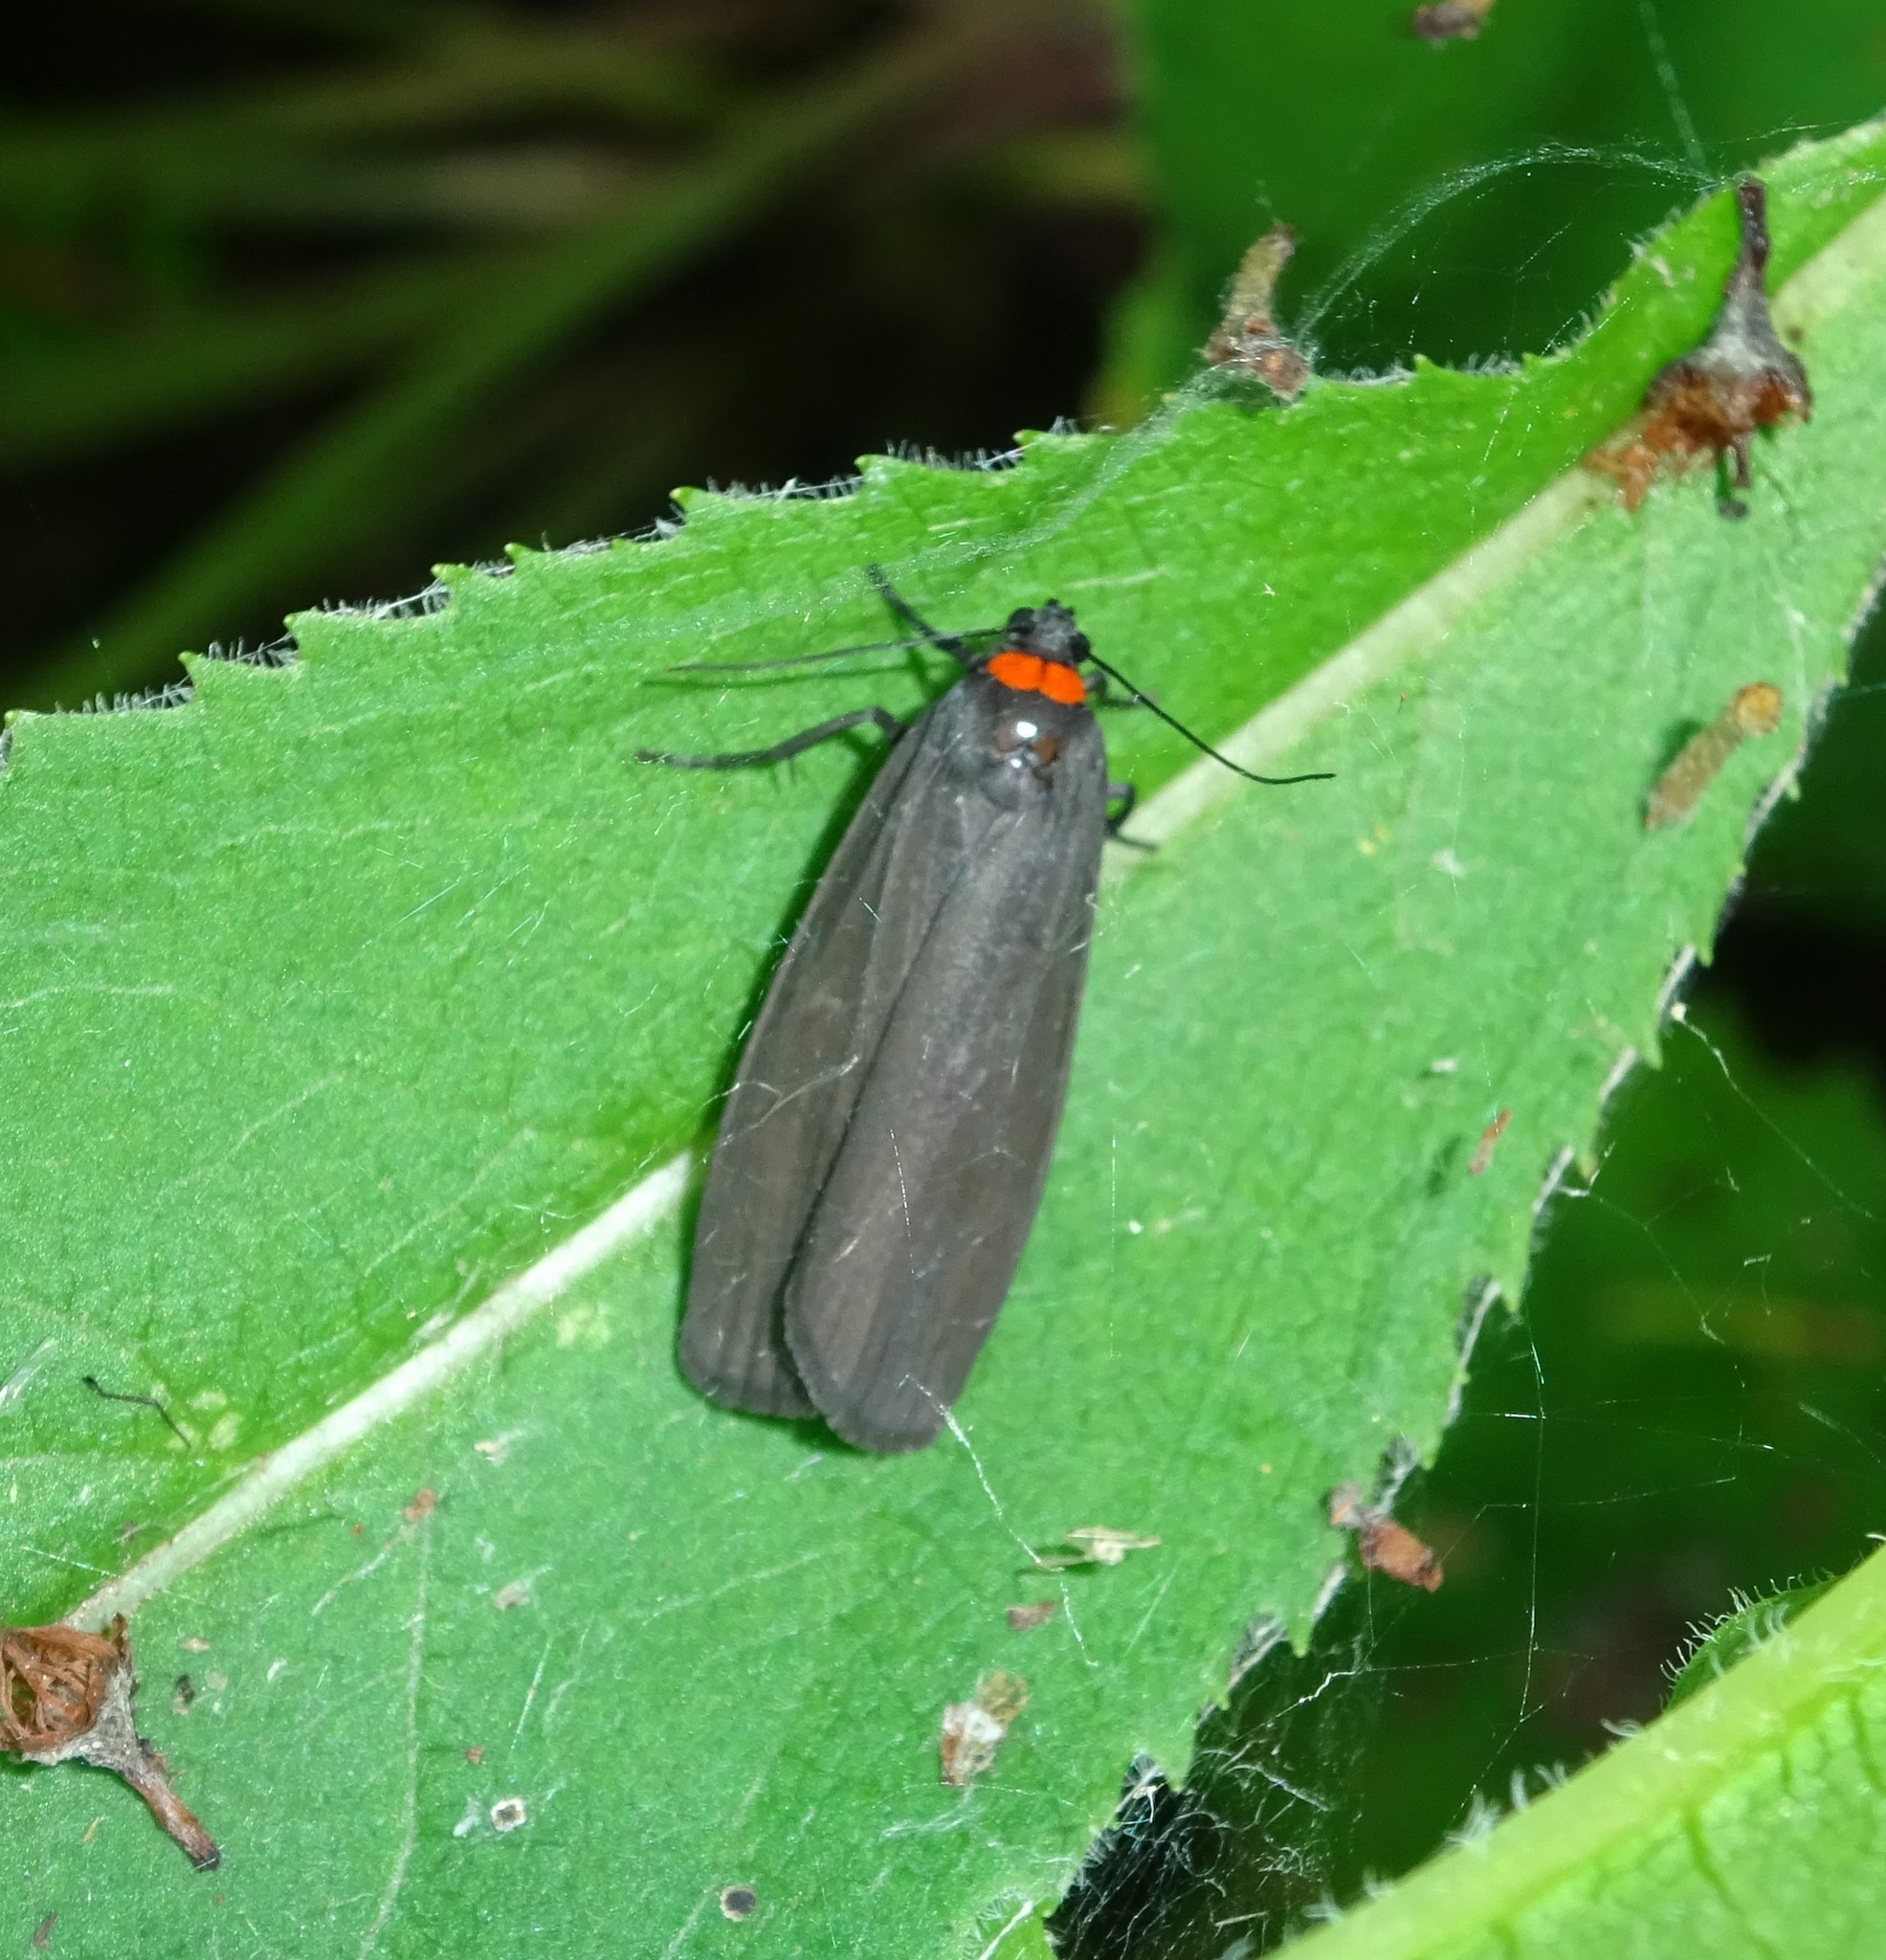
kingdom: Animalia
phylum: Arthropoda
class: Insecta
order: Lepidoptera
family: Erebidae
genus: Atolmis
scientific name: Atolmis rubricollis
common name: Red-necked footman
